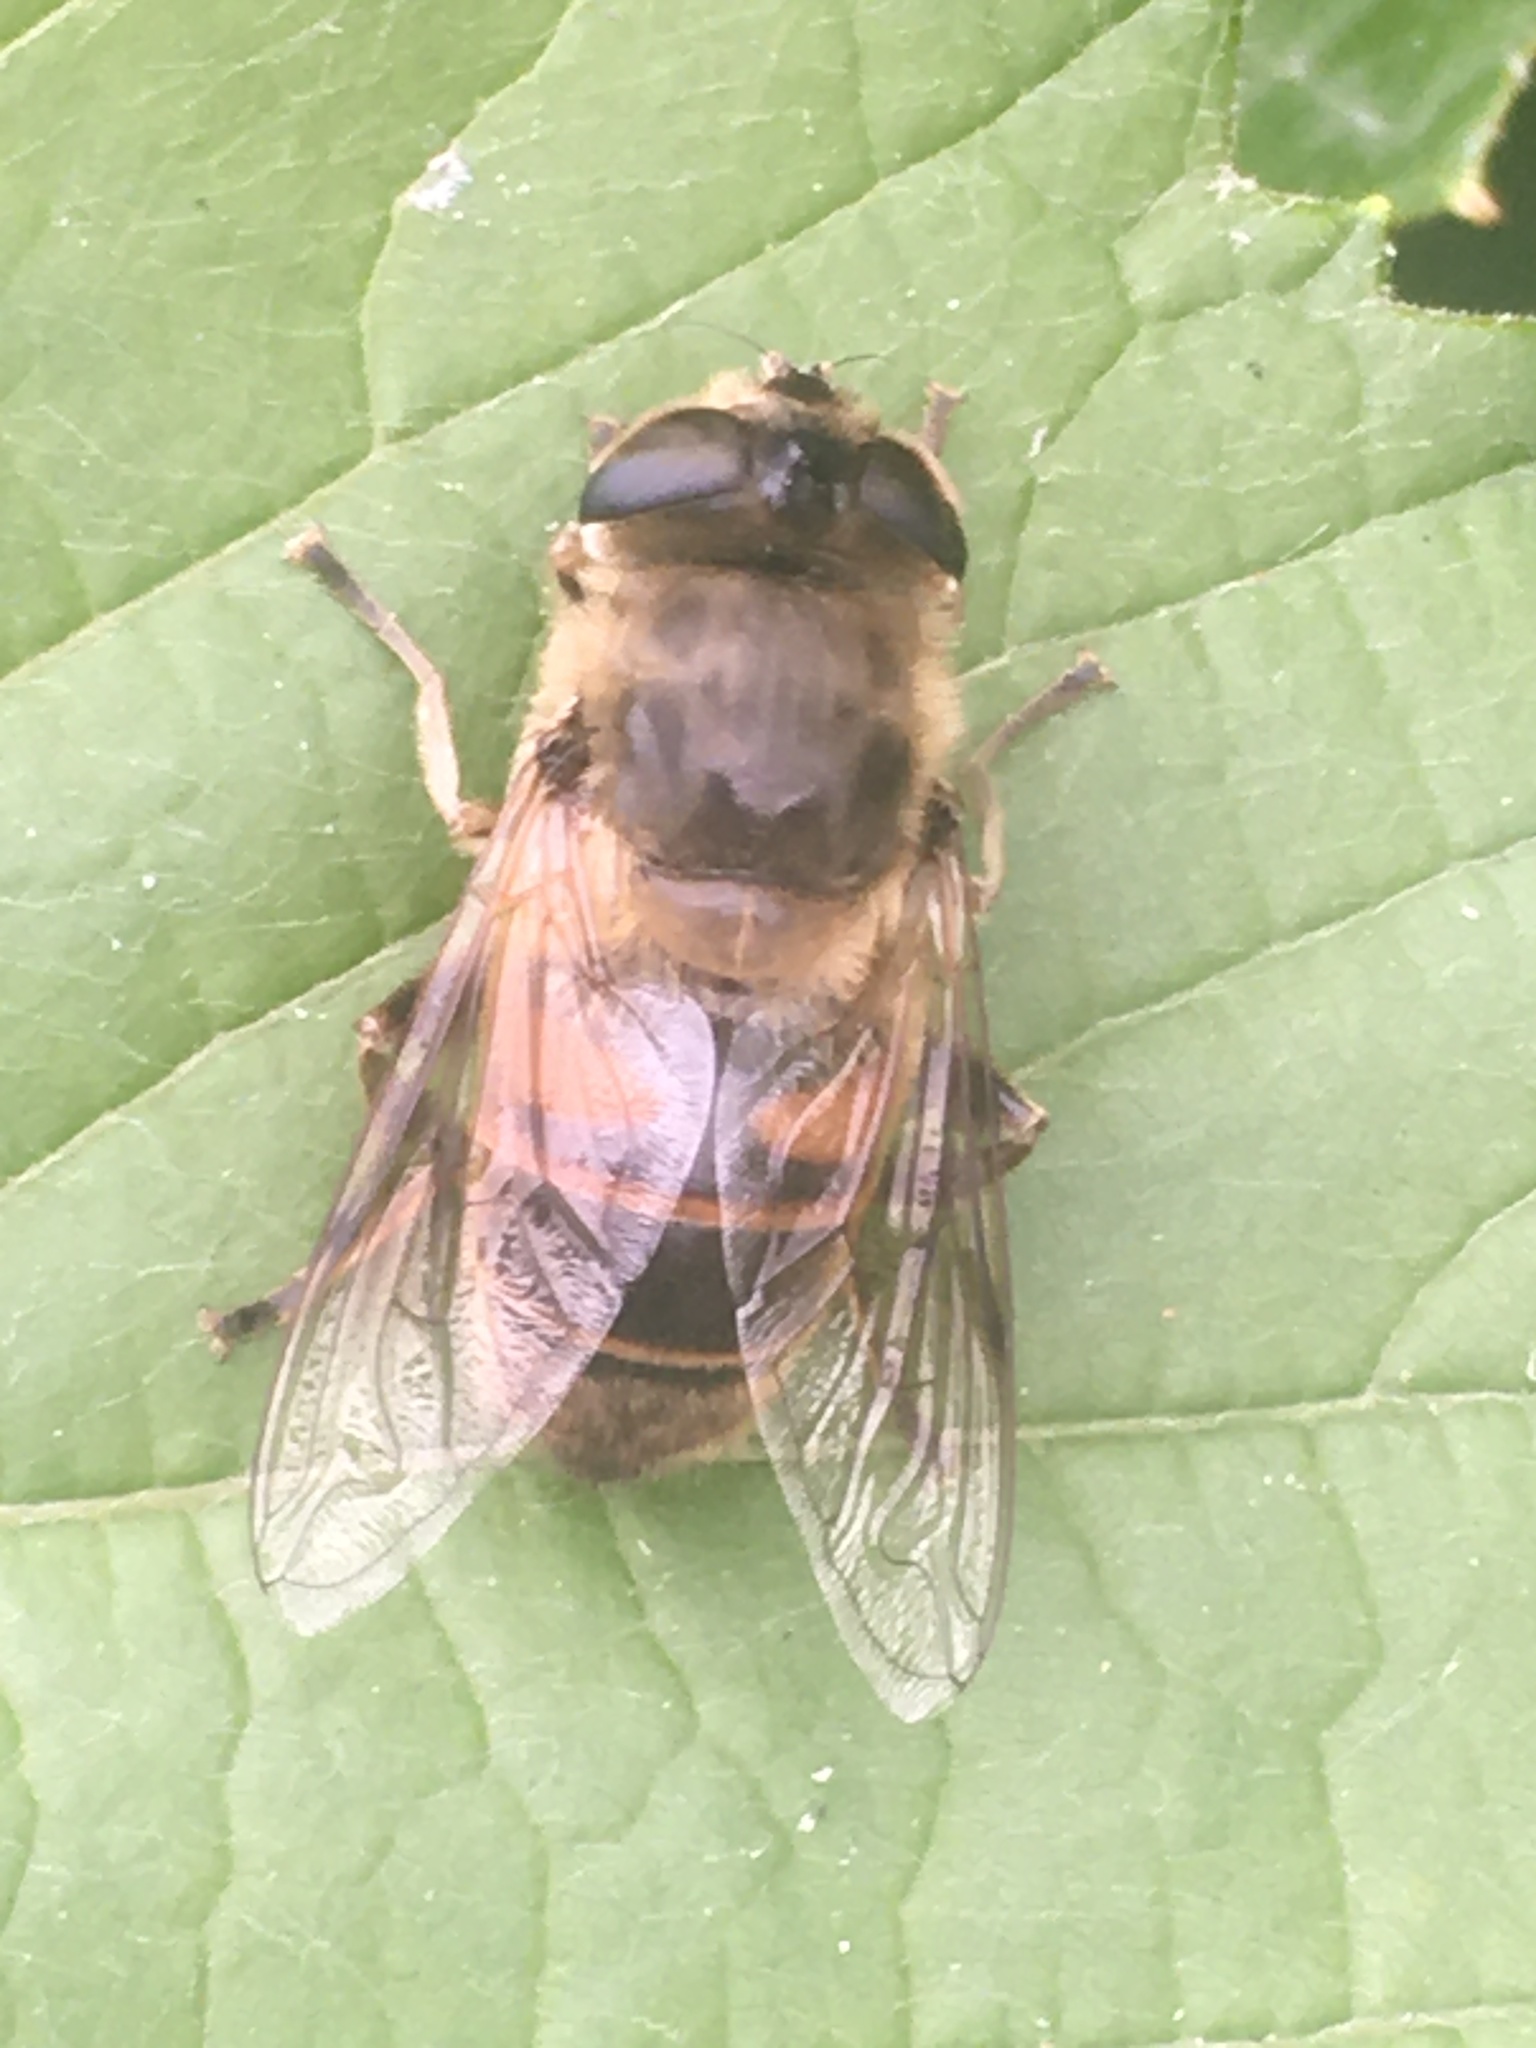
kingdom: Animalia
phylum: Arthropoda
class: Insecta
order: Diptera
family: Syrphidae
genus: Eristalis
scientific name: Eristalis tenax
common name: Drone fly
